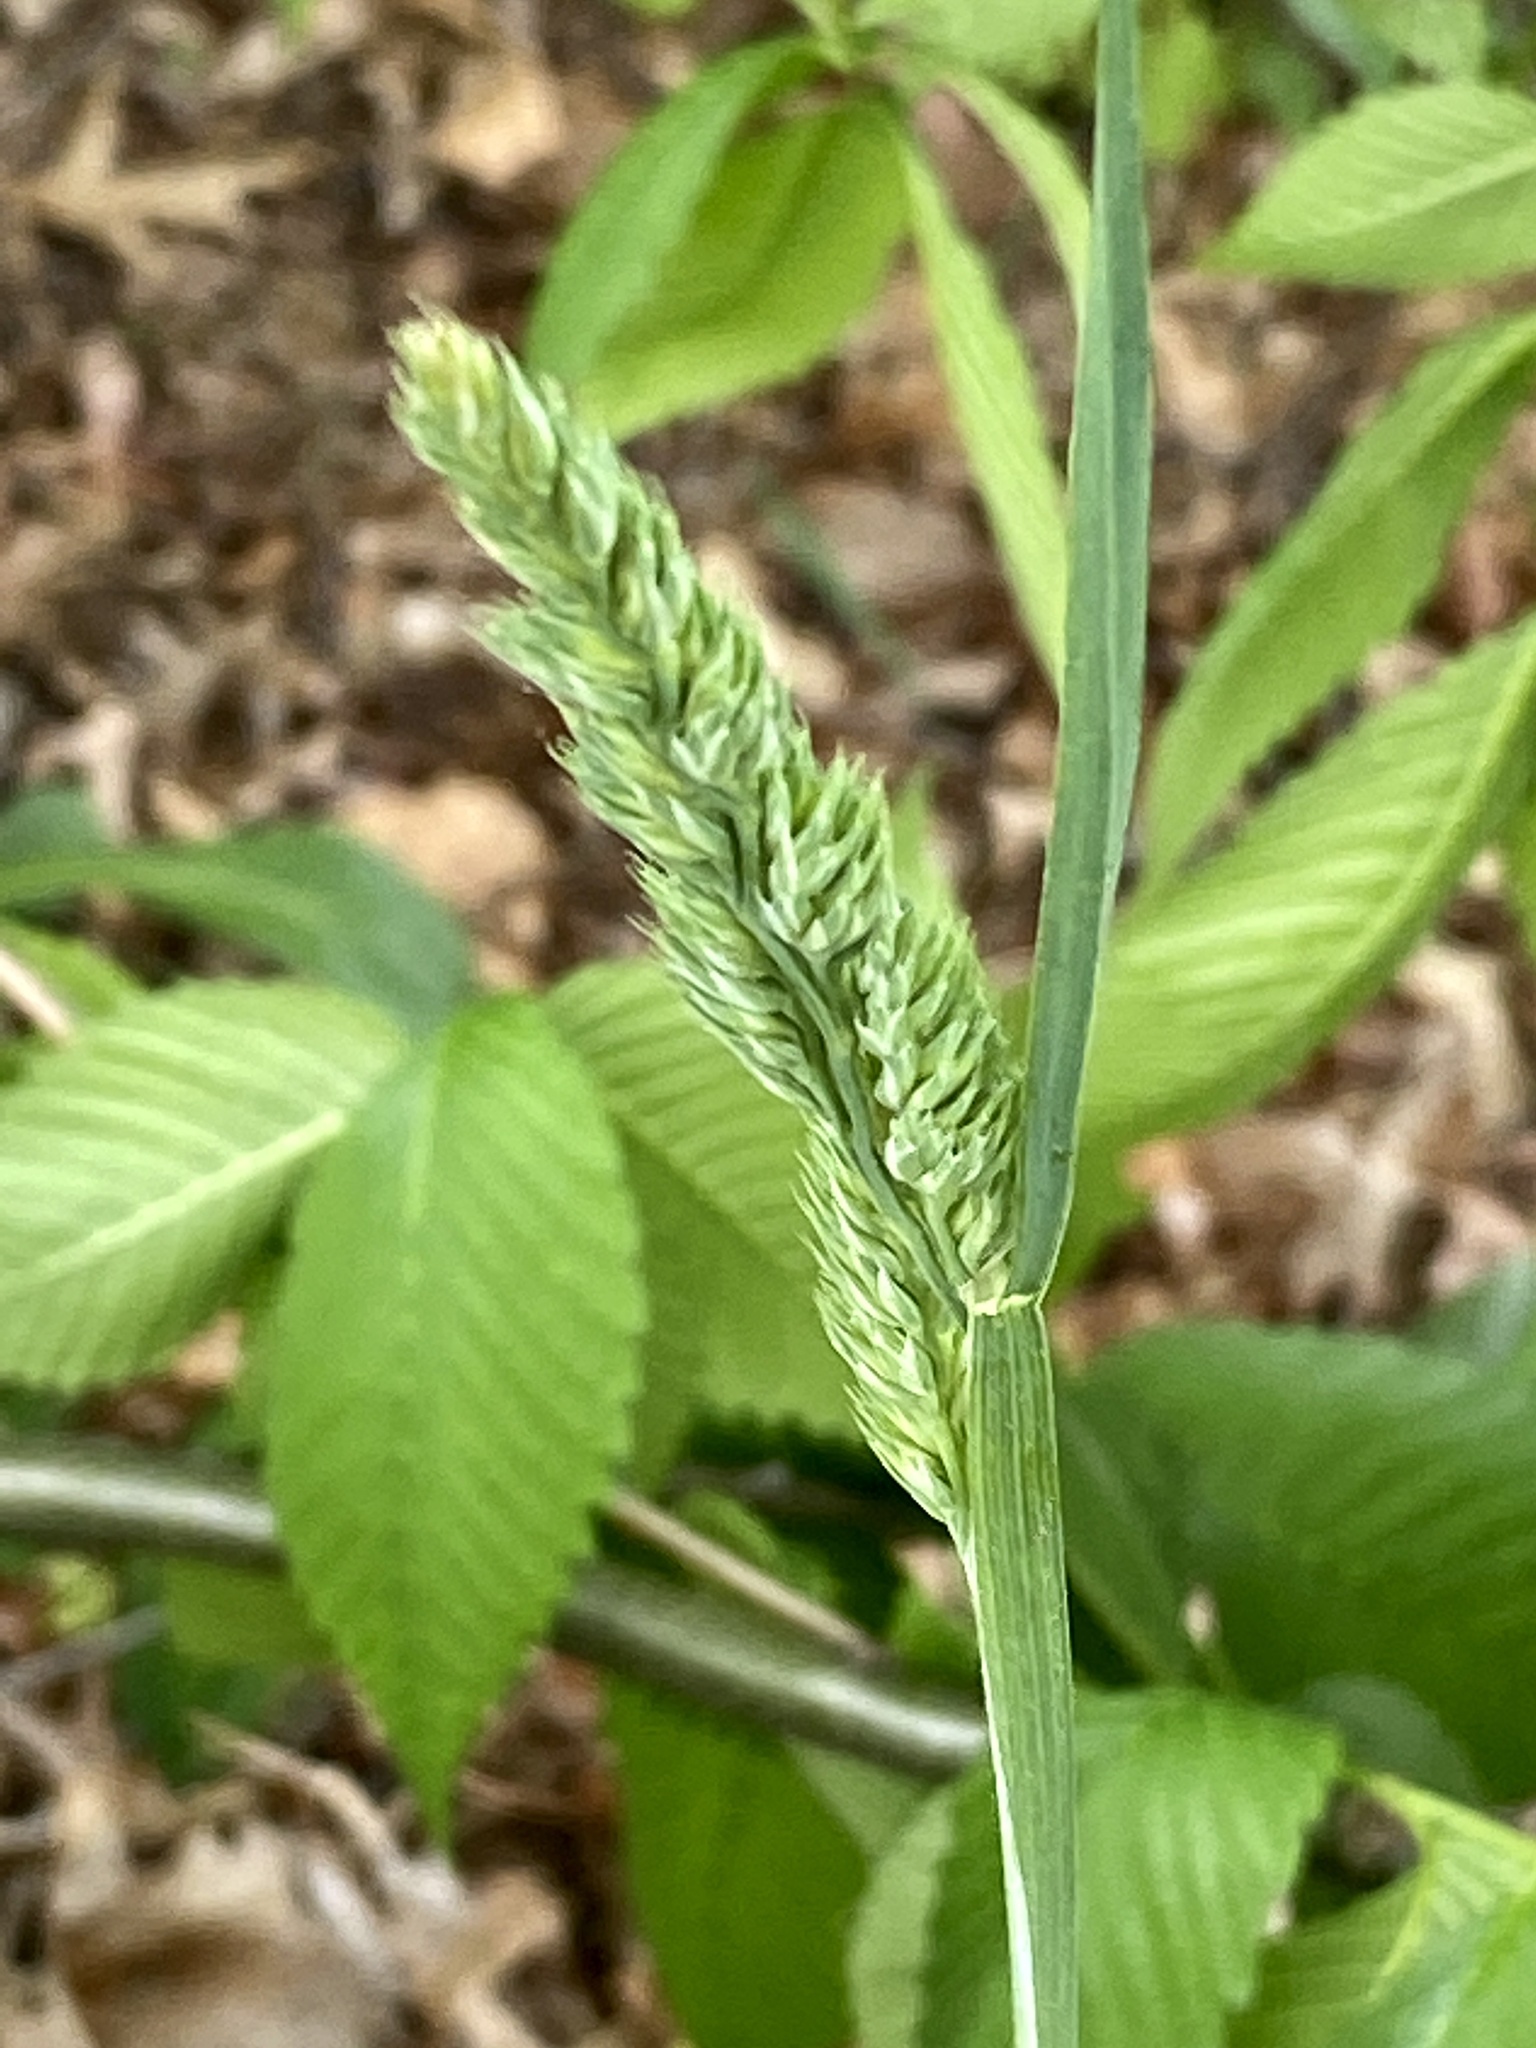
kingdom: Plantae
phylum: Tracheophyta
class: Liliopsida
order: Poales
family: Poaceae
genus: Dactylis
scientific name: Dactylis glomerata
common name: Orchardgrass
